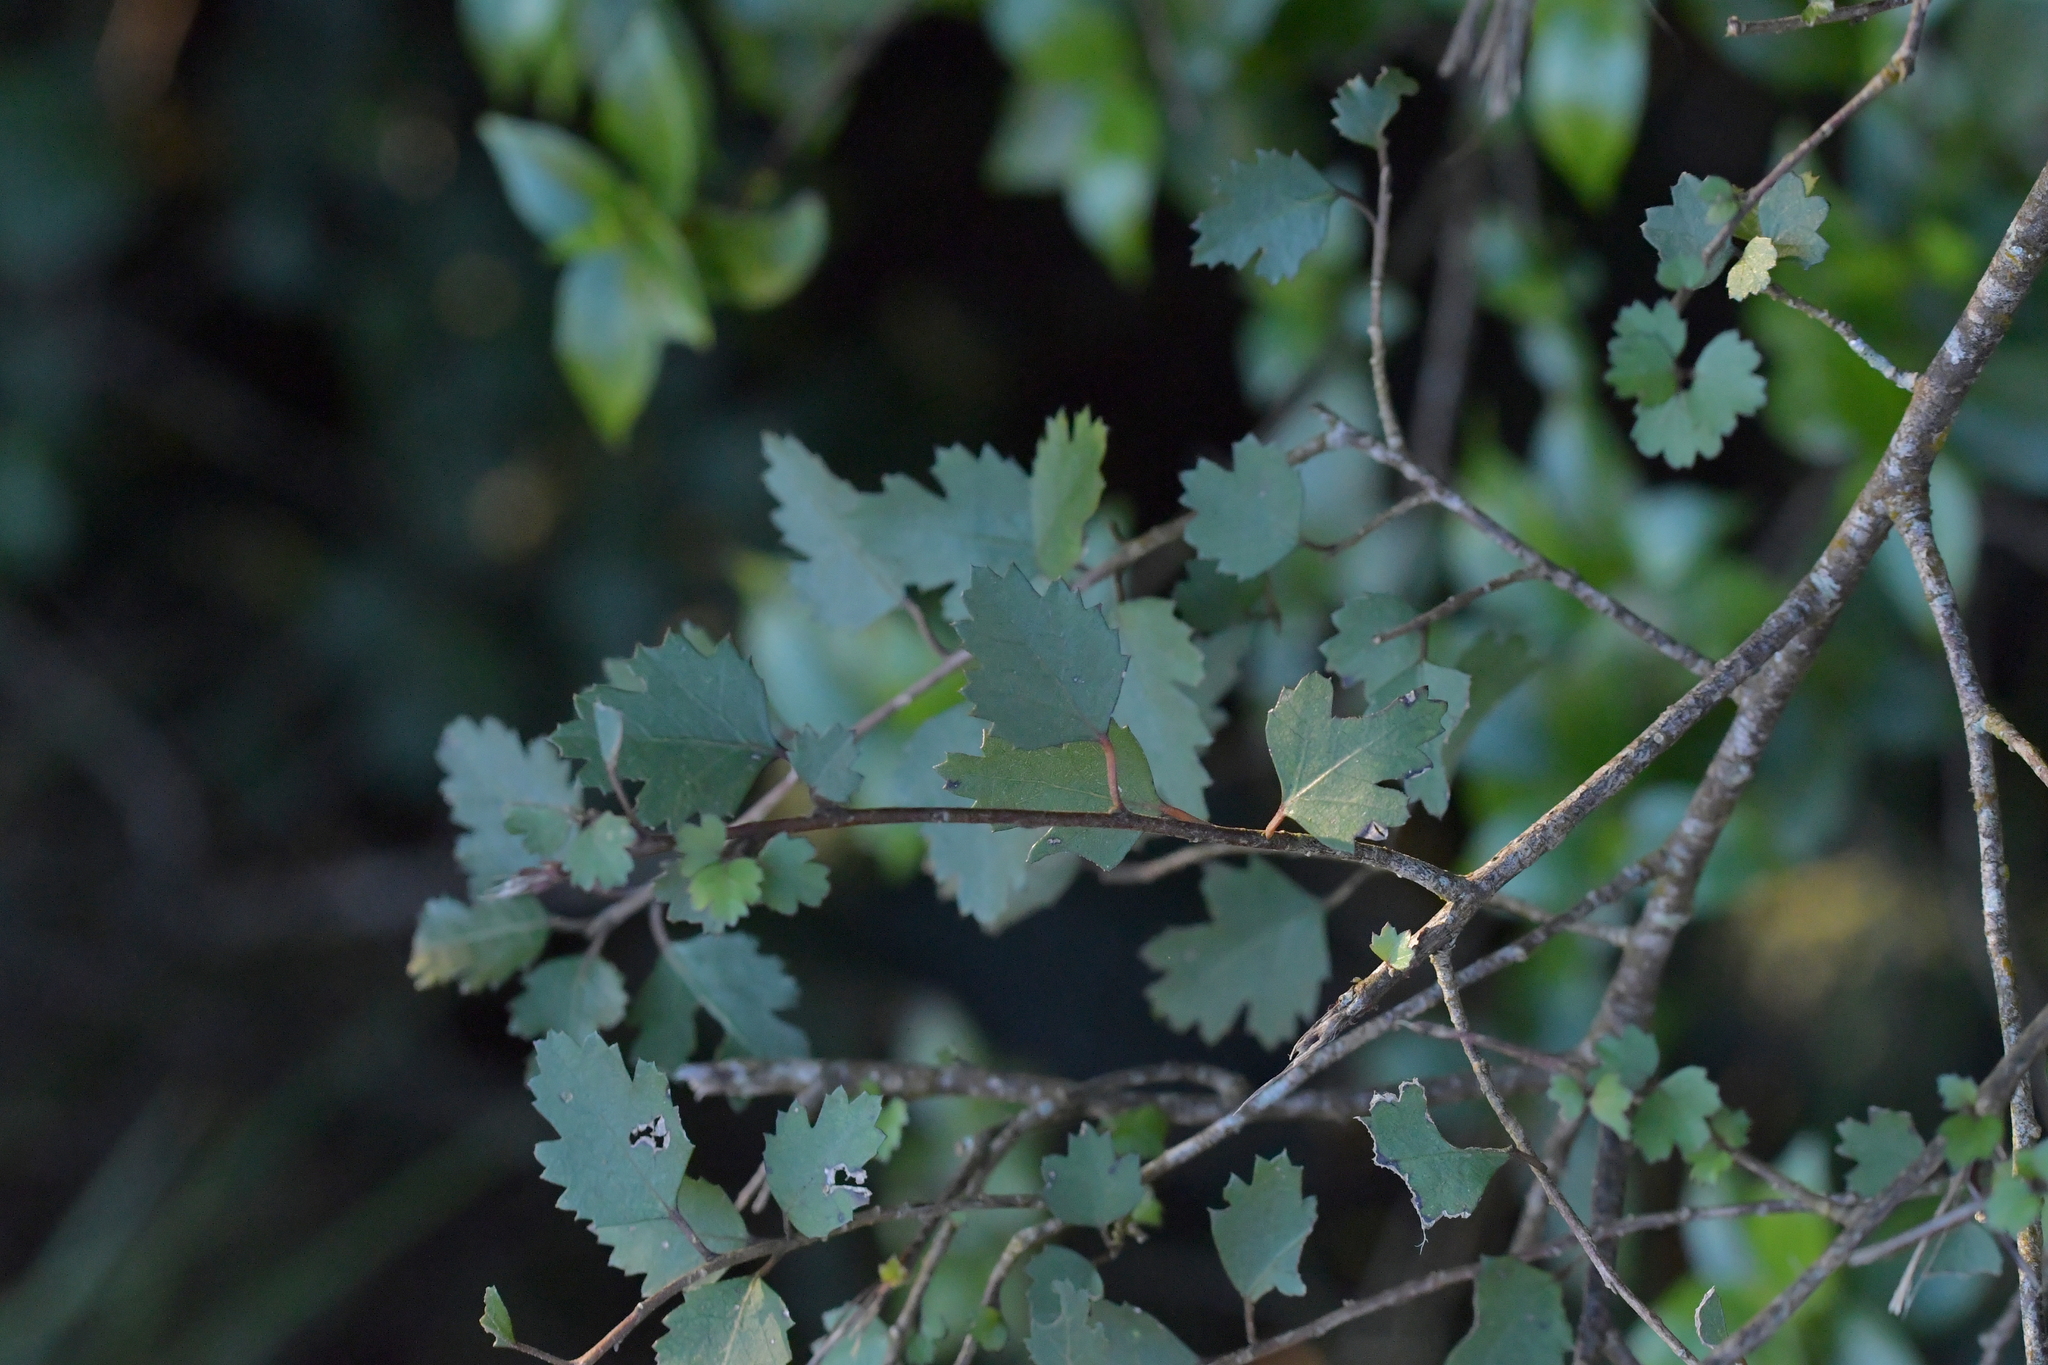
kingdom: Plantae
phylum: Tracheophyta
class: Magnoliopsida
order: Malvales
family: Malvaceae
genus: Hoheria
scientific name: Hoheria sexstylosa
